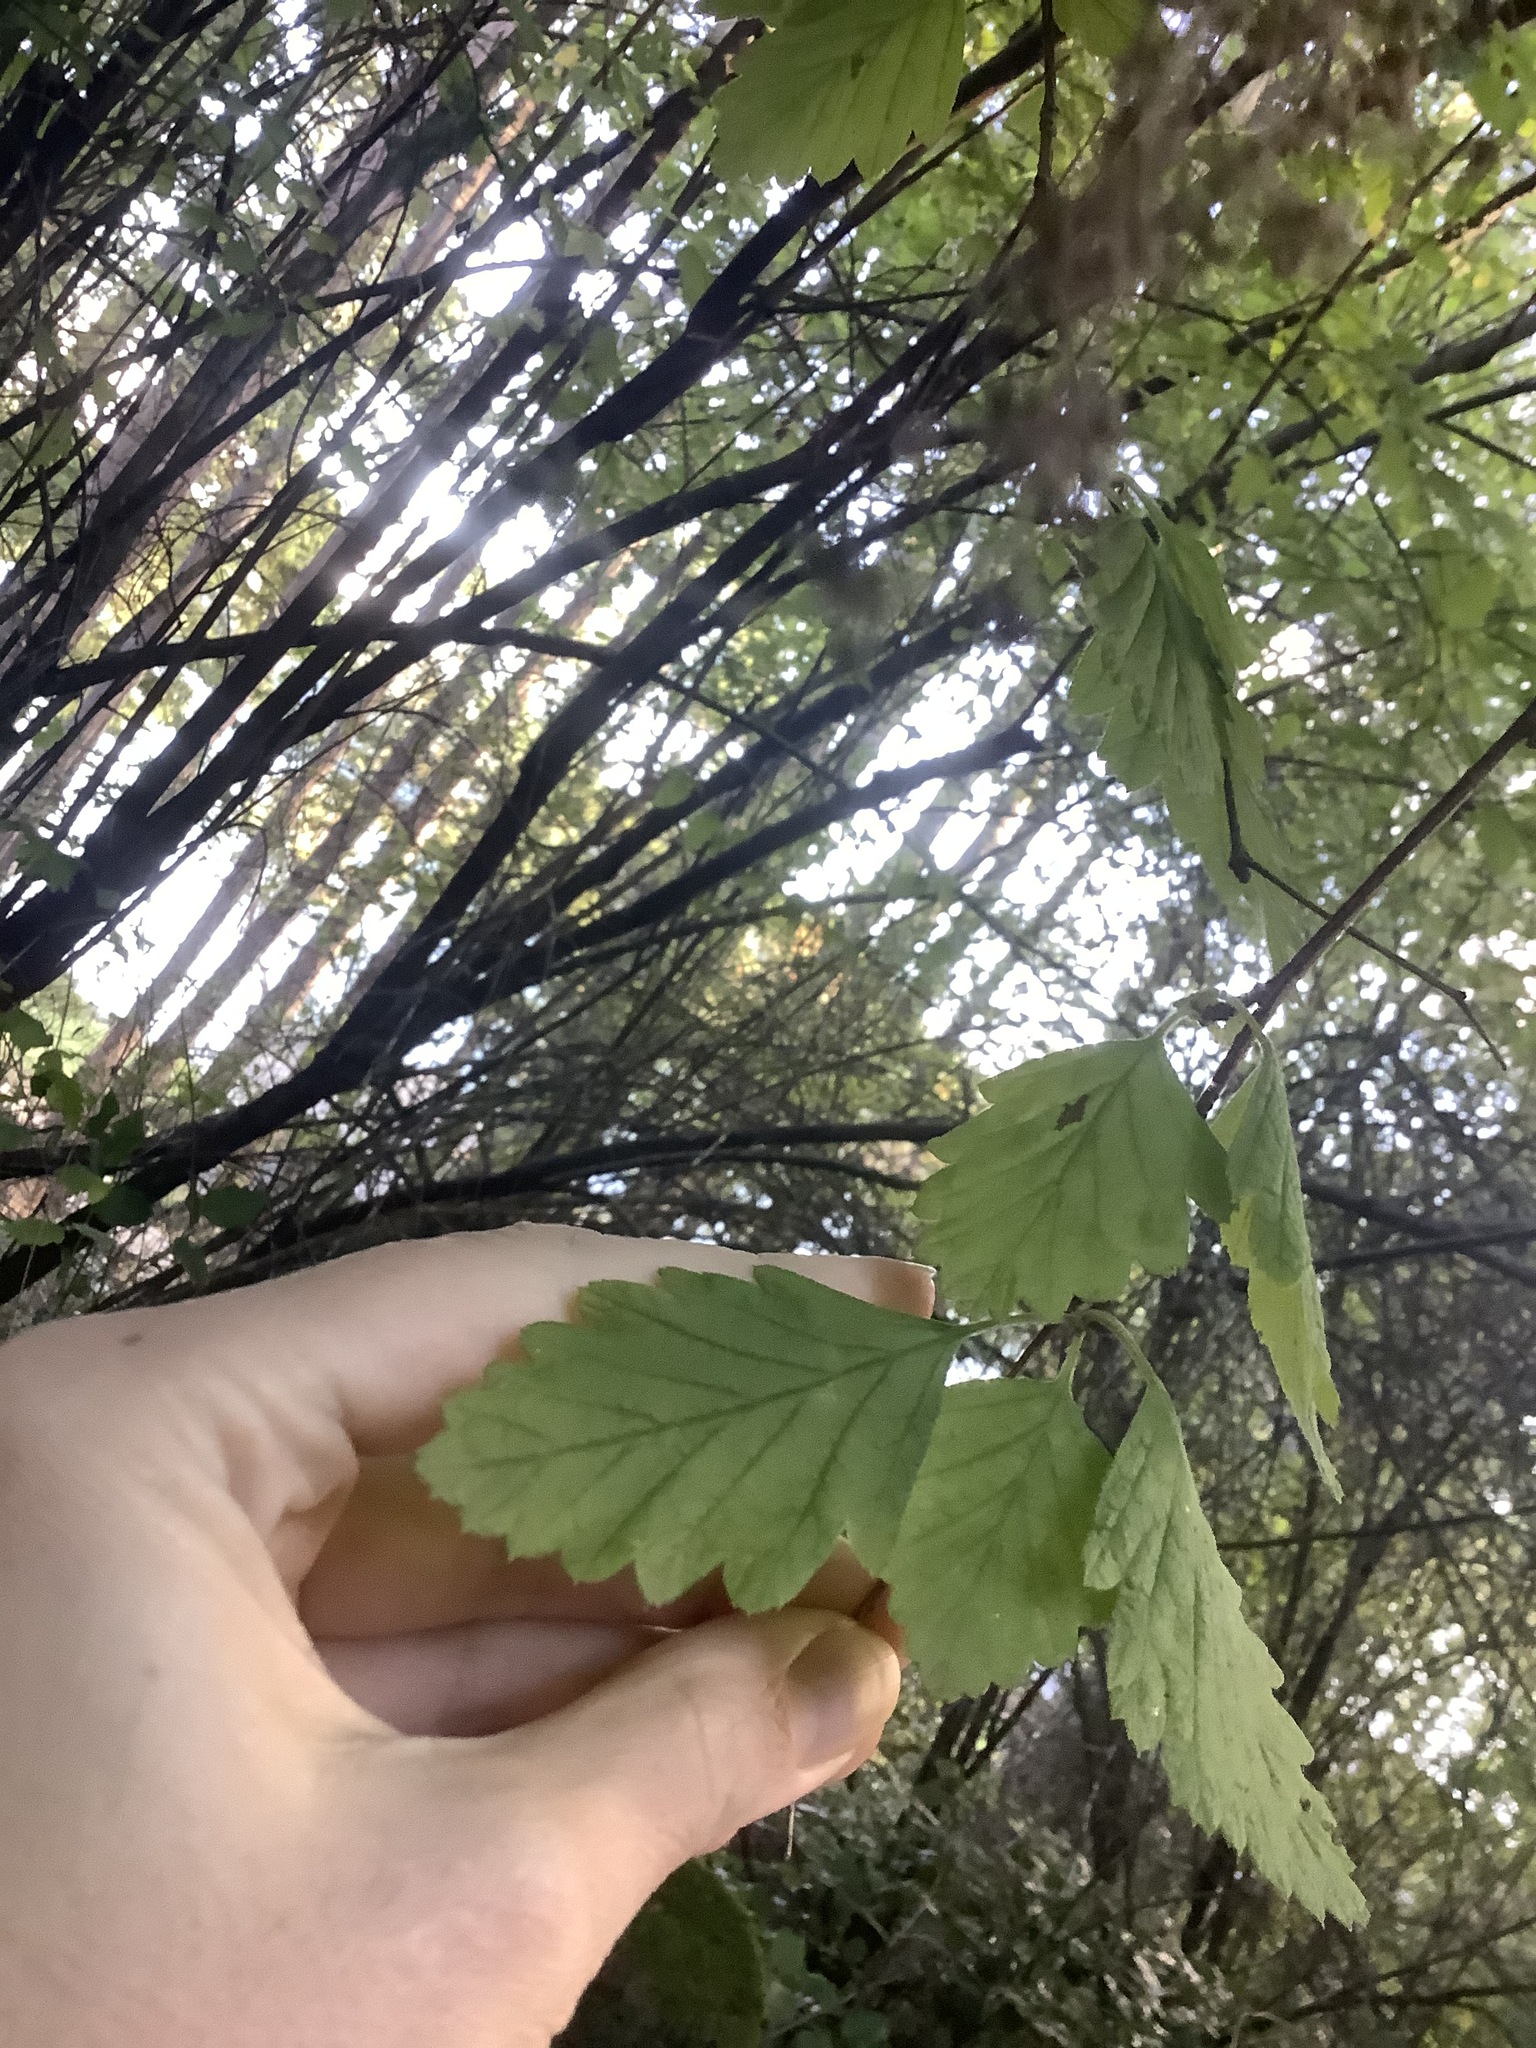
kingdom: Plantae
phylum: Tracheophyta
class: Magnoliopsida
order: Rosales
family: Rosaceae
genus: Holodiscus
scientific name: Holodiscus discolor
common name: Oceanspray
